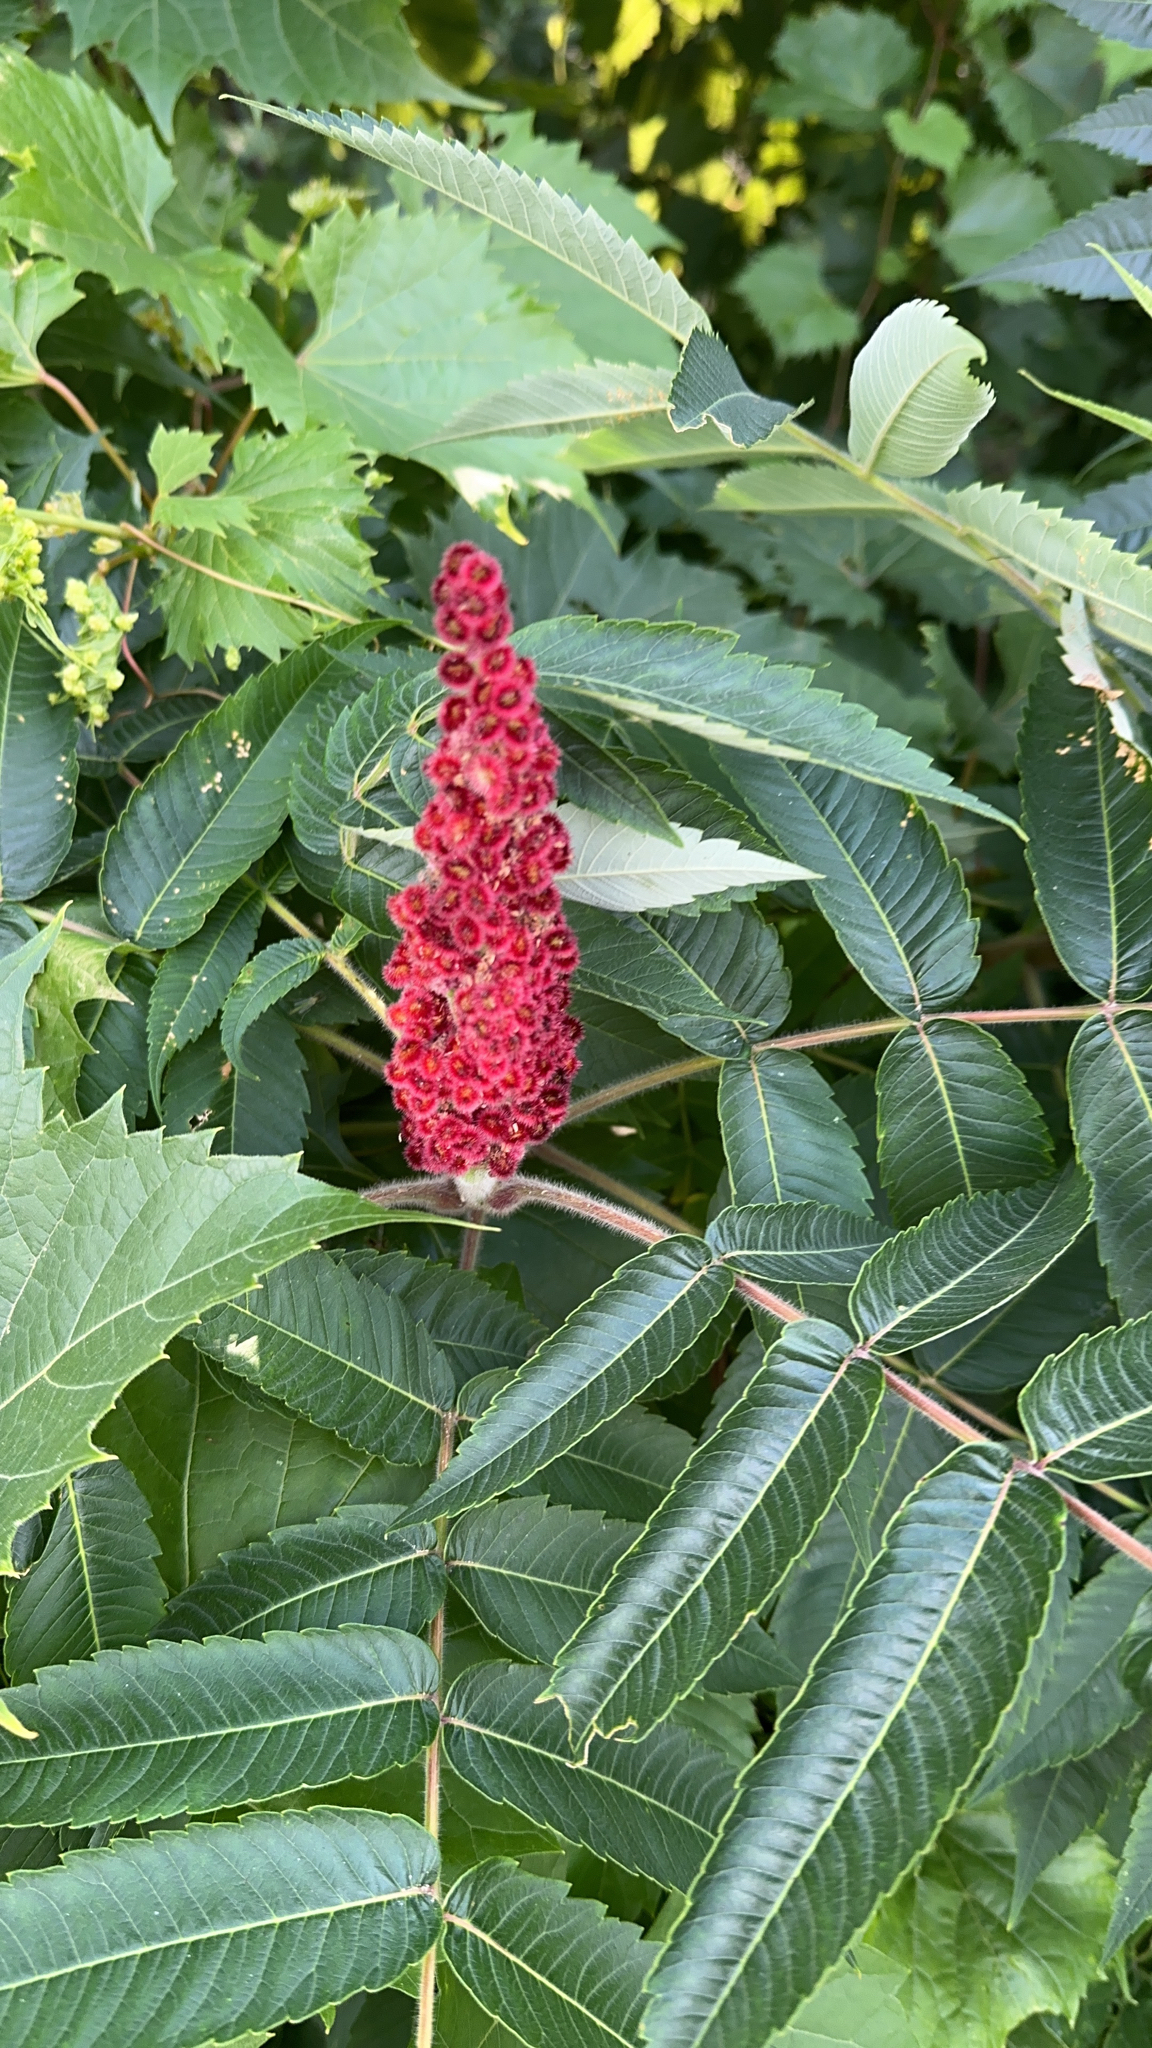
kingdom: Plantae
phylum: Tracheophyta
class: Magnoliopsida
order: Sapindales
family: Anacardiaceae
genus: Rhus
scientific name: Rhus typhina
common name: Staghorn sumac
